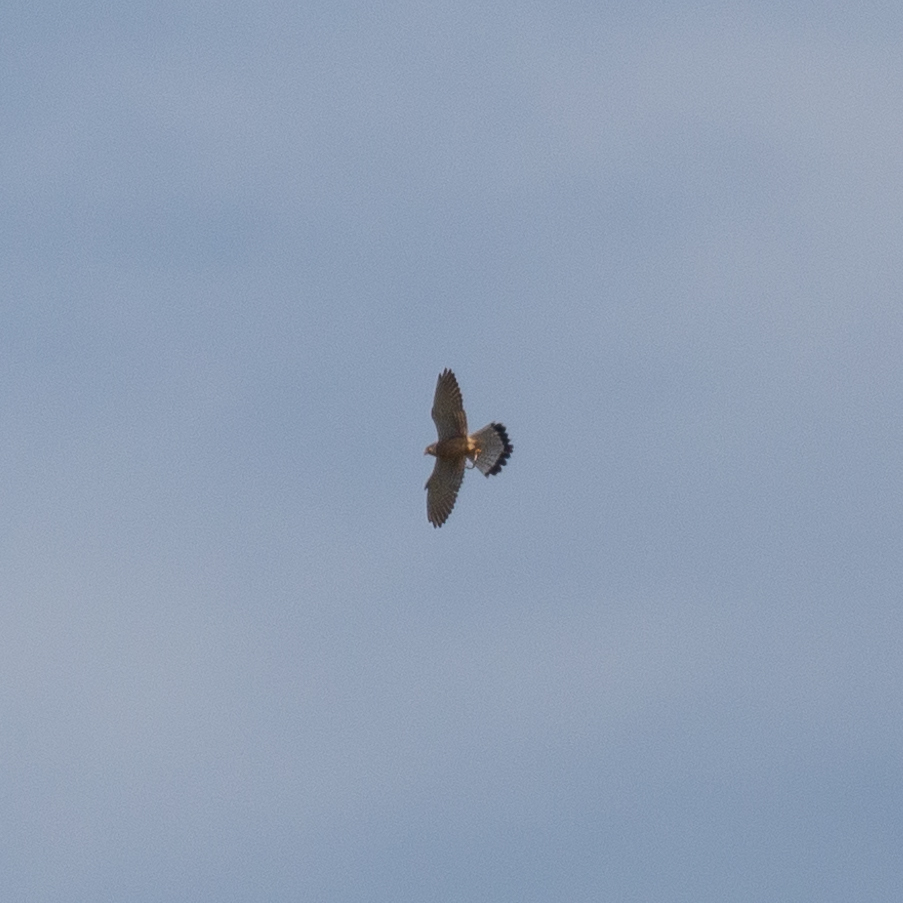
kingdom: Animalia
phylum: Chordata
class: Aves
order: Falconiformes
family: Falconidae
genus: Falco
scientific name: Falco tinnunculus
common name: Common kestrel
